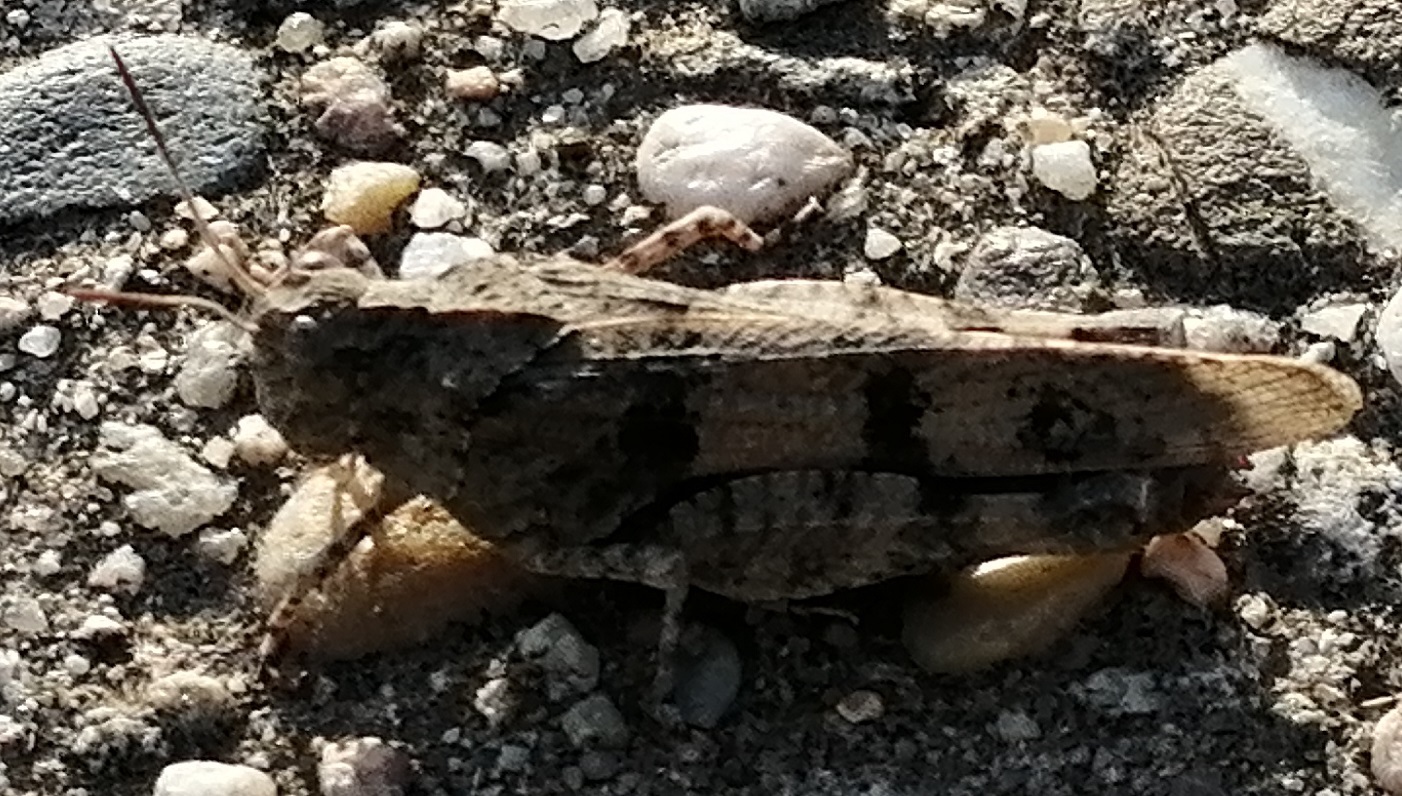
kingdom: Animalia
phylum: Arthropoda
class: Insecta
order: Orthoptera
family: Acrididae
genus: Oedipoda
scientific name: Oedipoda caerulescens
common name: Blue-winged grasshopper
